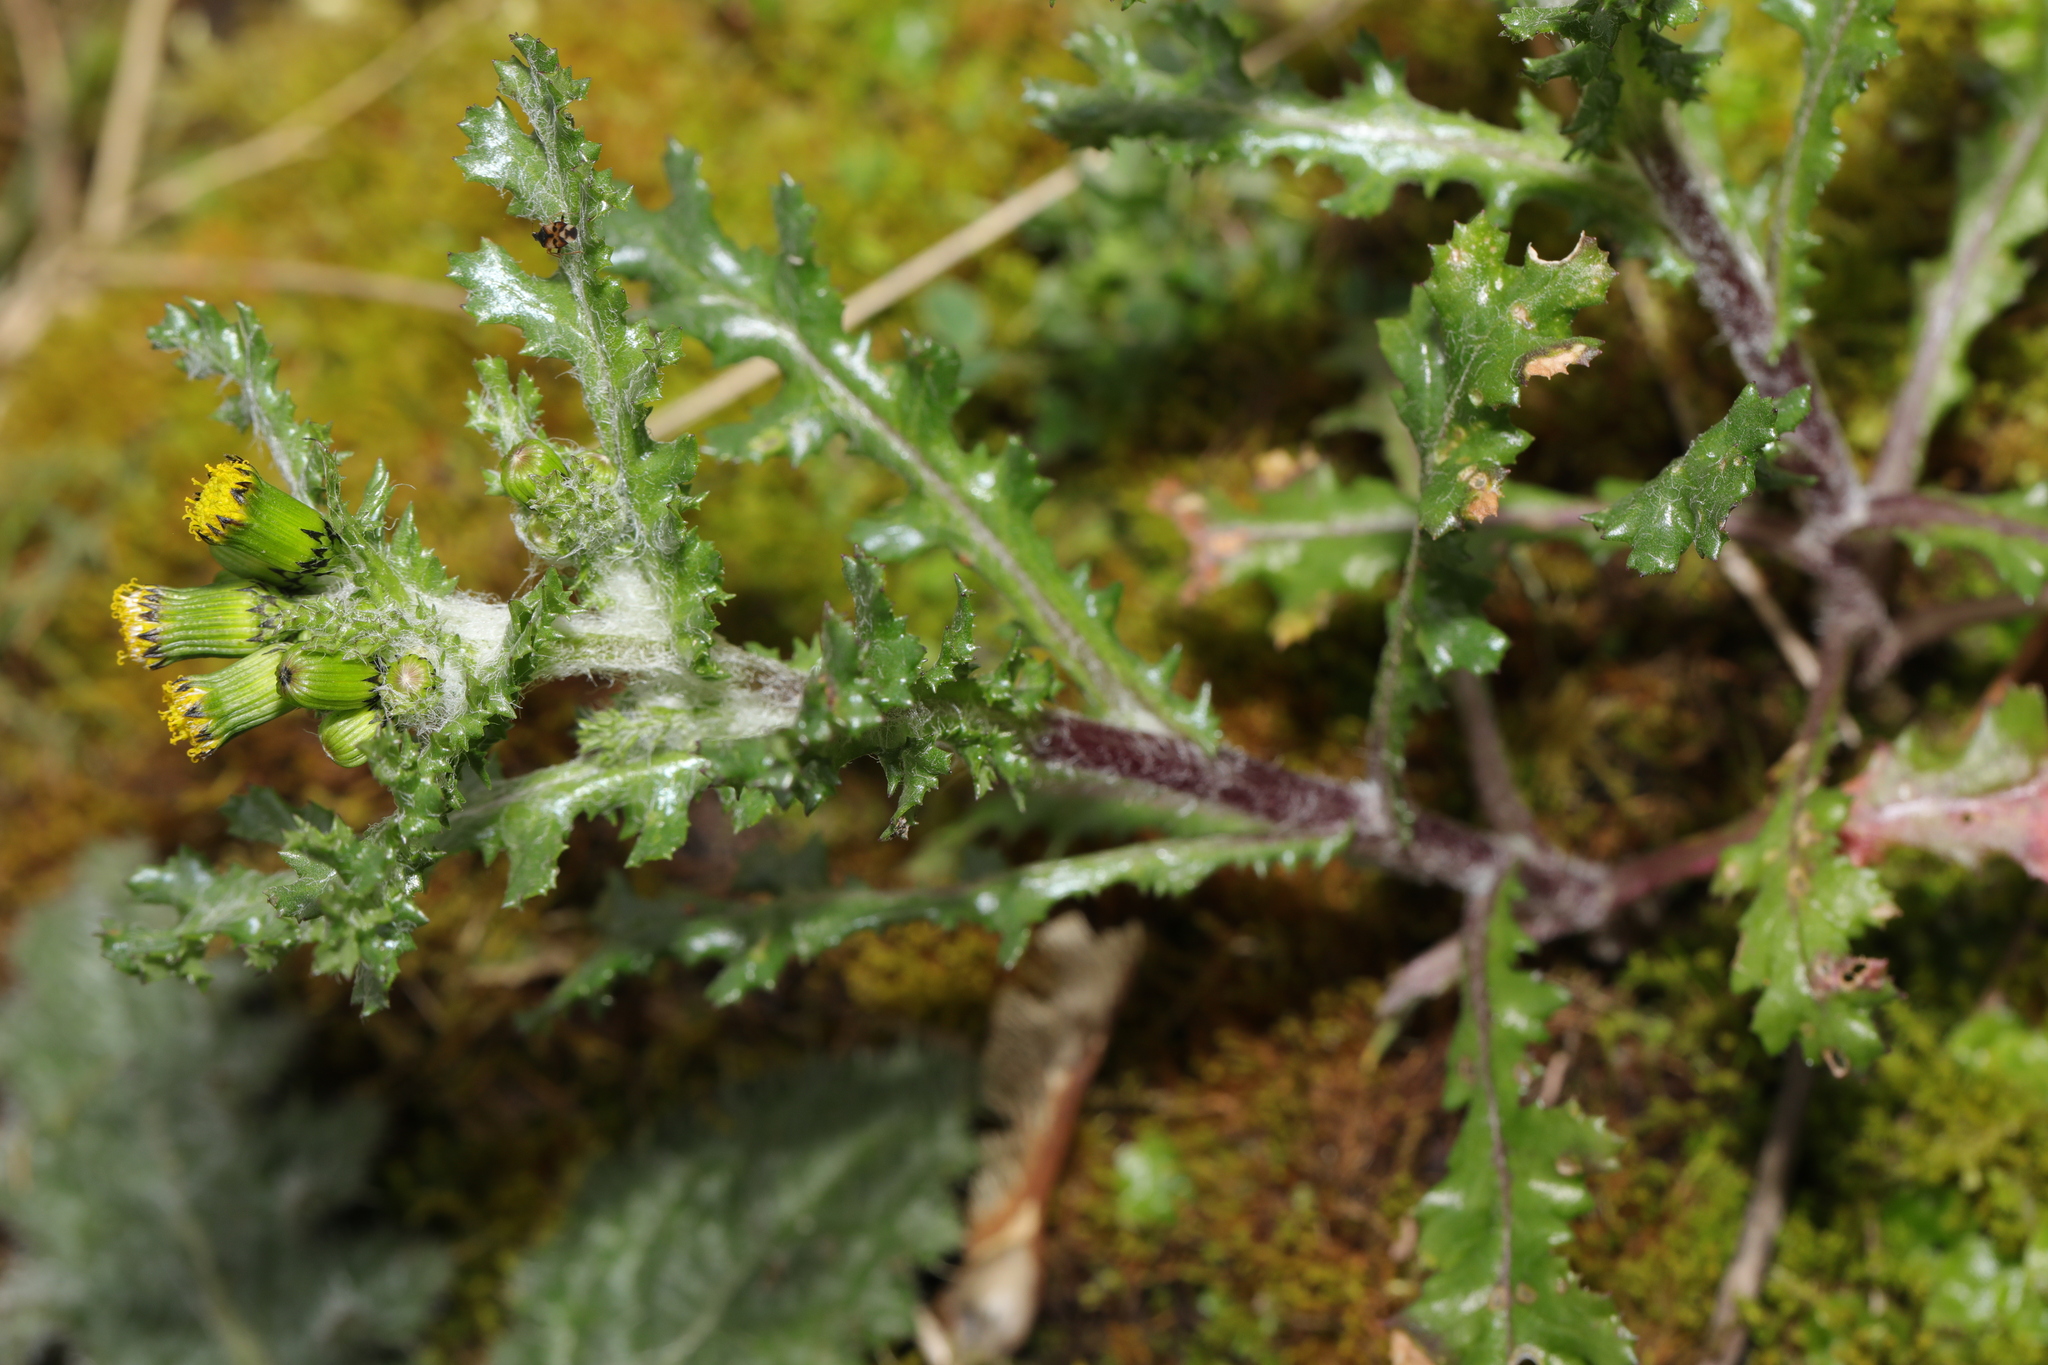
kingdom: Plantae
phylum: Tracheophyta
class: Magnoliopsida
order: Asterales
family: Asteraceae
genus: Senecio
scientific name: Senecio vulgaris
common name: Old-man-in-the-spring
